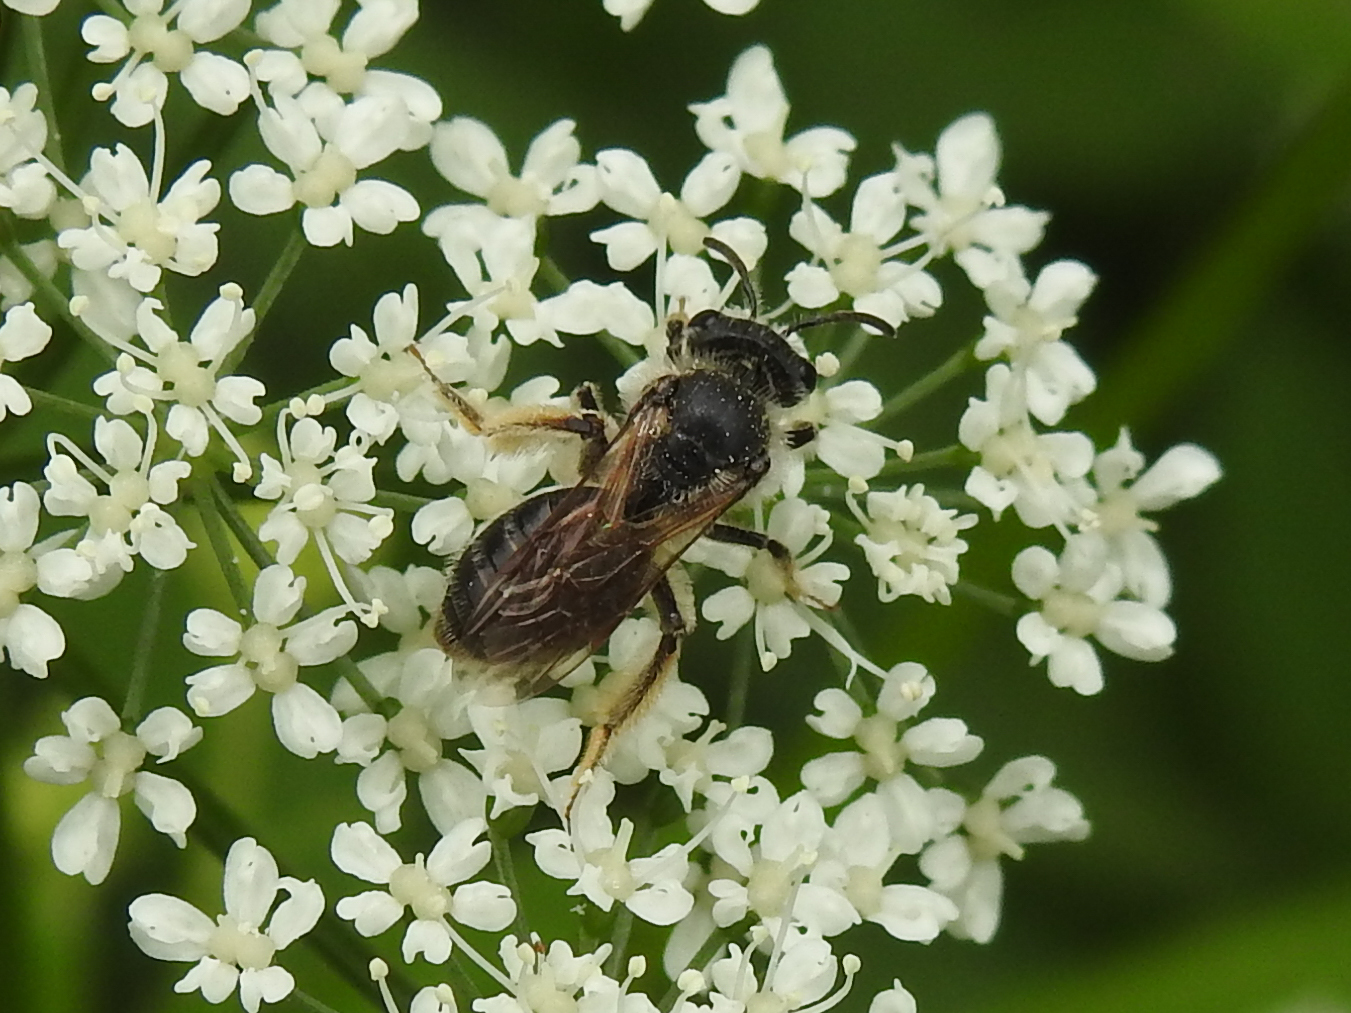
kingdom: Animalia
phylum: Arthropoda
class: Insecta
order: Hymenoptera
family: Andrenidae
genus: Andrena
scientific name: Andrena crataegi
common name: Hawthorn mining bee
